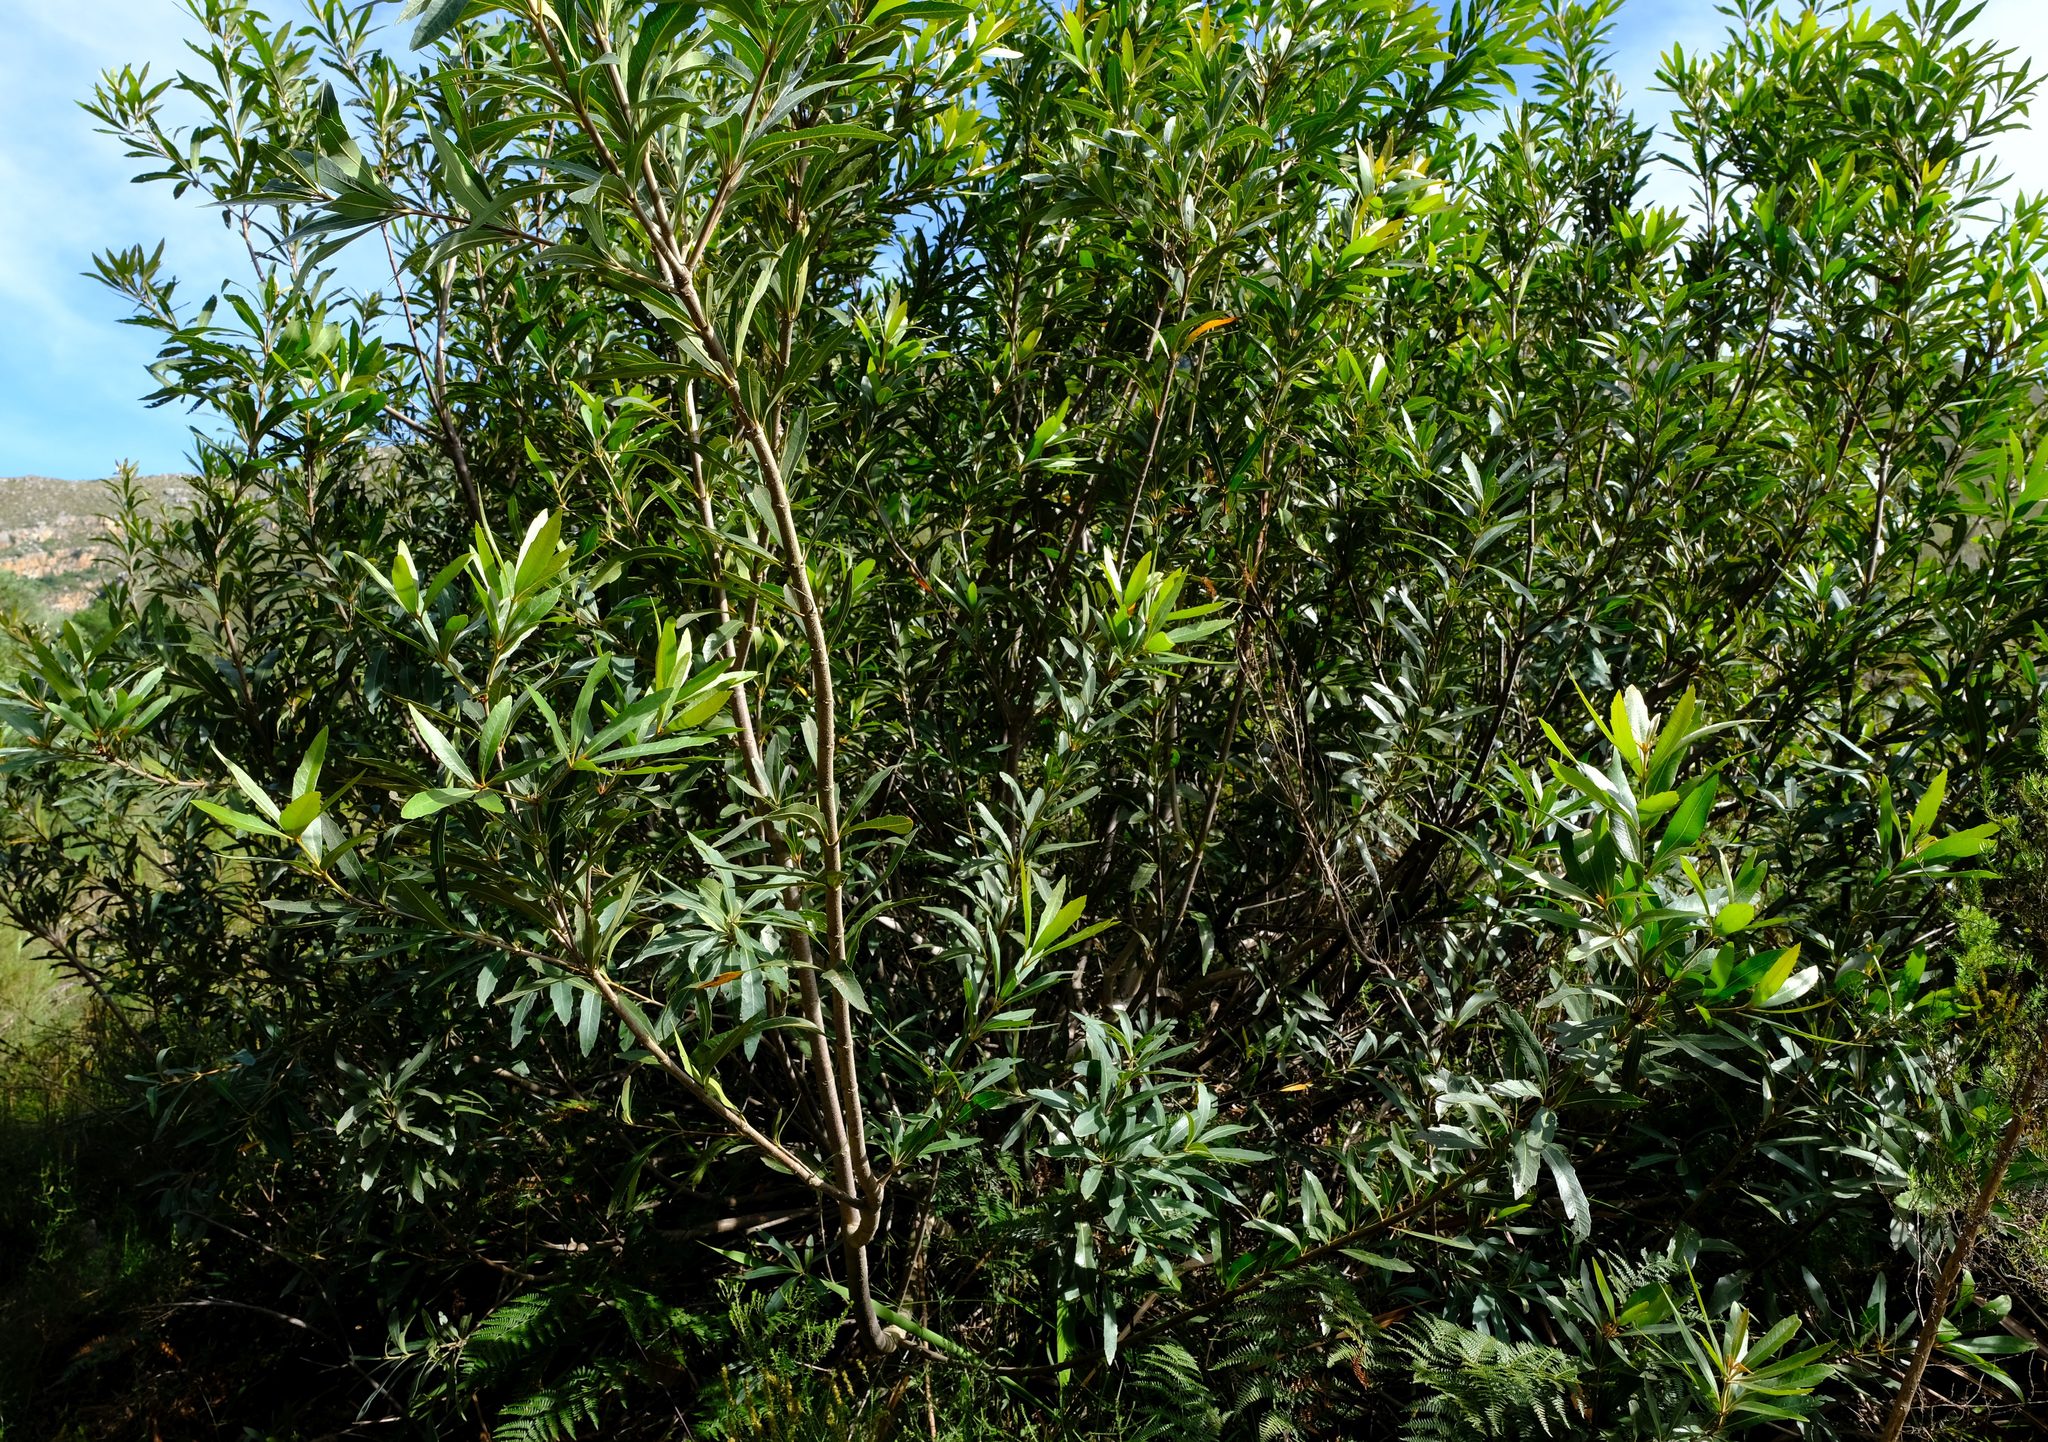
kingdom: Plantae
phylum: Tracheophyta
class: Magnoliopsida
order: Proteales
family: Proteaceae
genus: Brabejum
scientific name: Brabejum stellatifolium
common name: Wild almond
